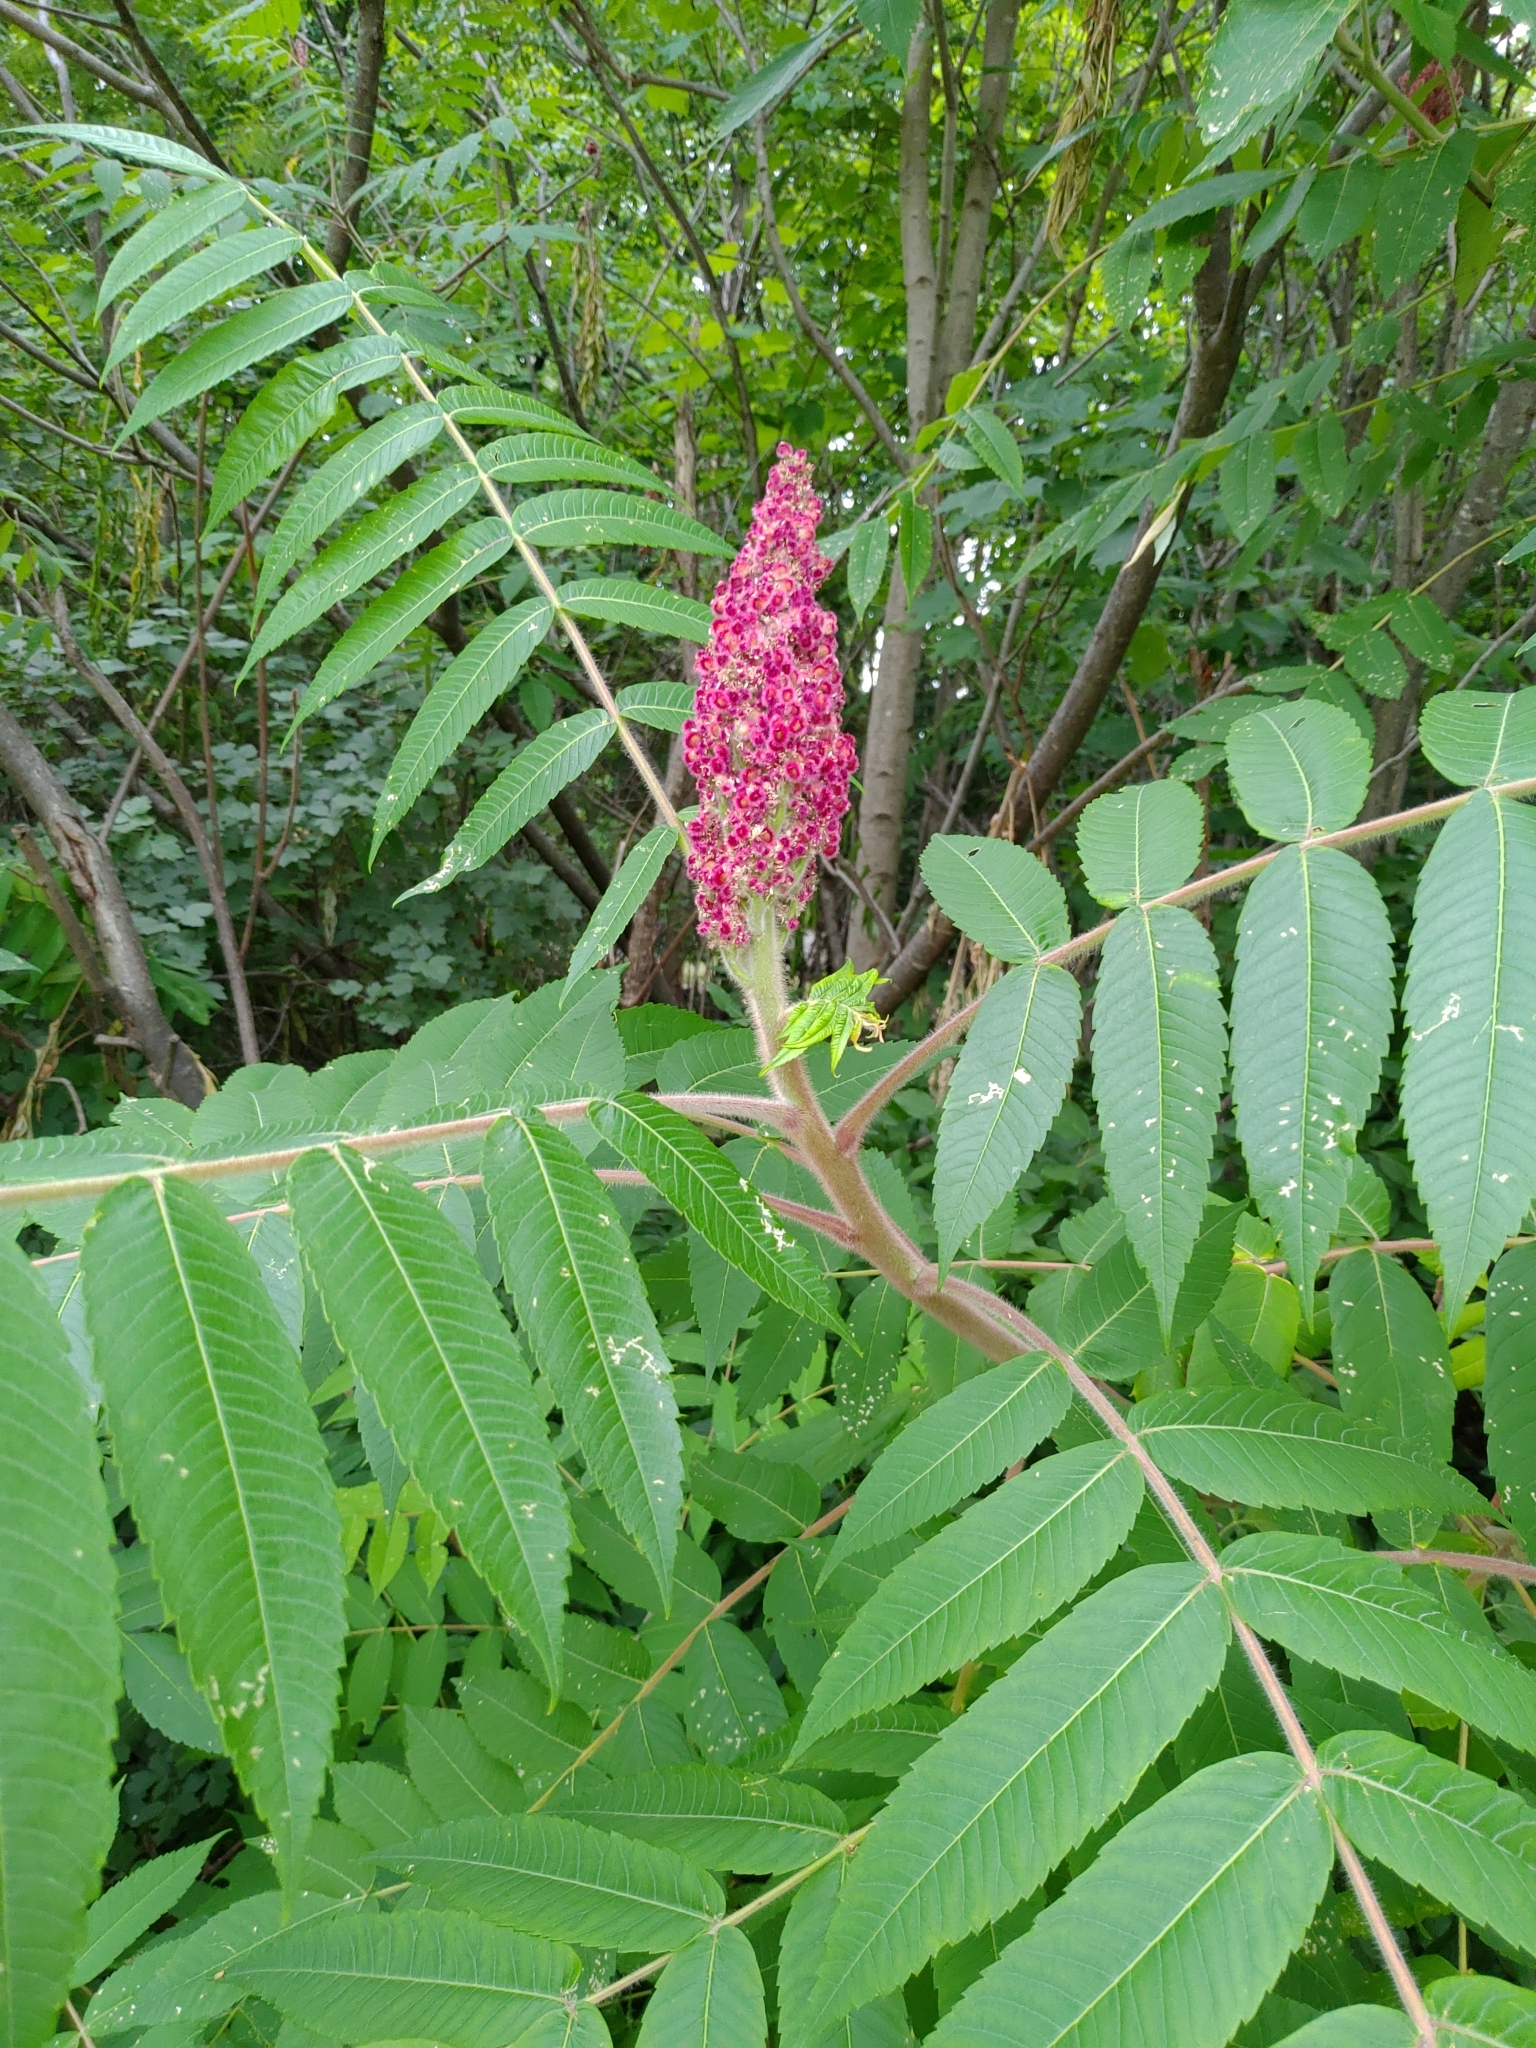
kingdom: Plantae
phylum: Tracheophyta
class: Magnoliopsida
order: Sapindales
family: Anacardiaceae
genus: Rhus
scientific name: Rhus typhina
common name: Staghorn sumac
